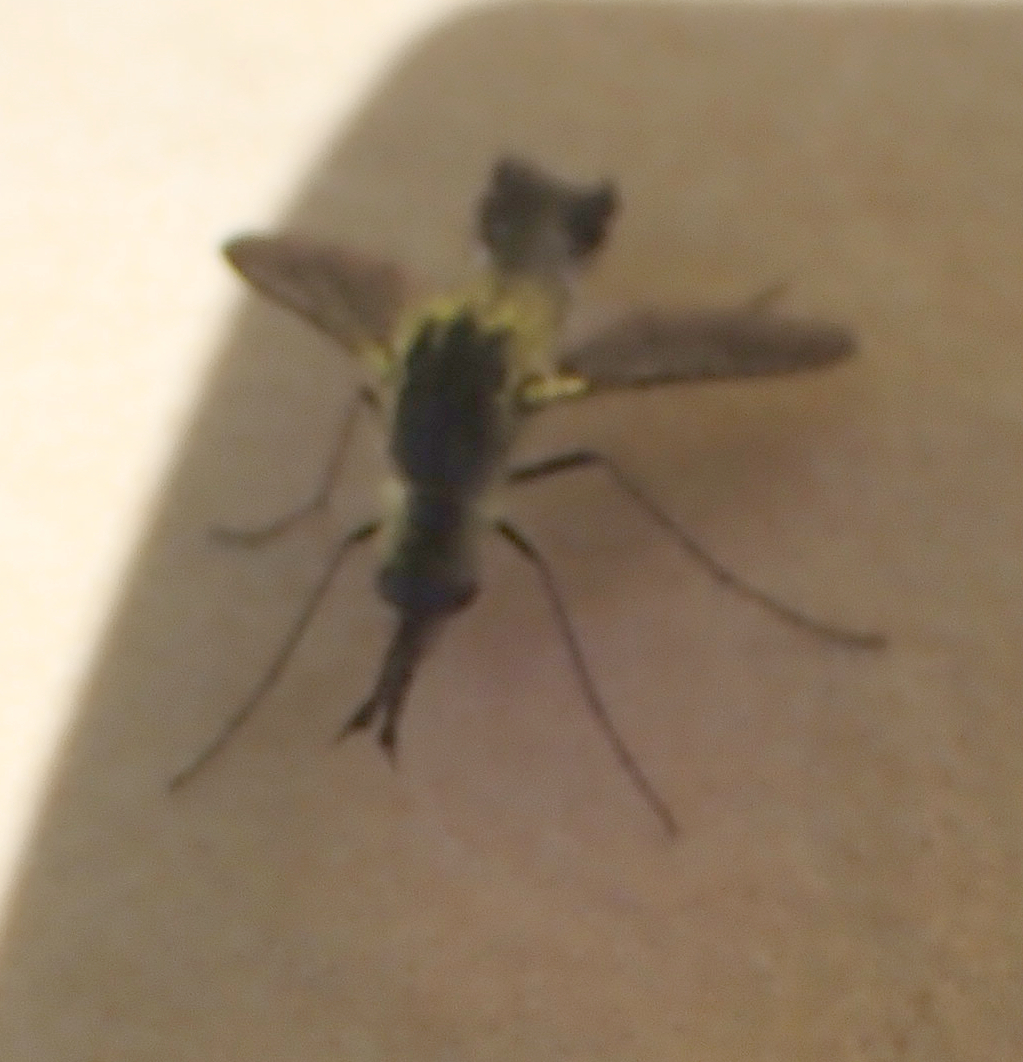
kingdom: Animalia
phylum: Arthropoda
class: Insecta
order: Diptera
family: Bombyliidae
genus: Lepidophora
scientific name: Lepidophora lutea
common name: Hunchback bee fly
